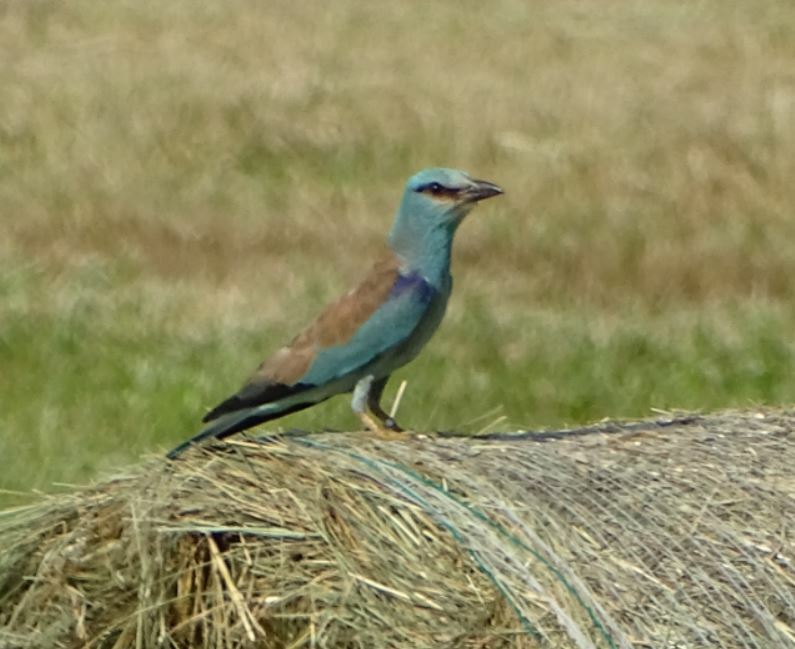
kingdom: Animalia
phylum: Chordata
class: Aves
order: Coraciiformes
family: Coraciidae
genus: Coracias
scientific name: Coracias garrulus
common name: European roller
